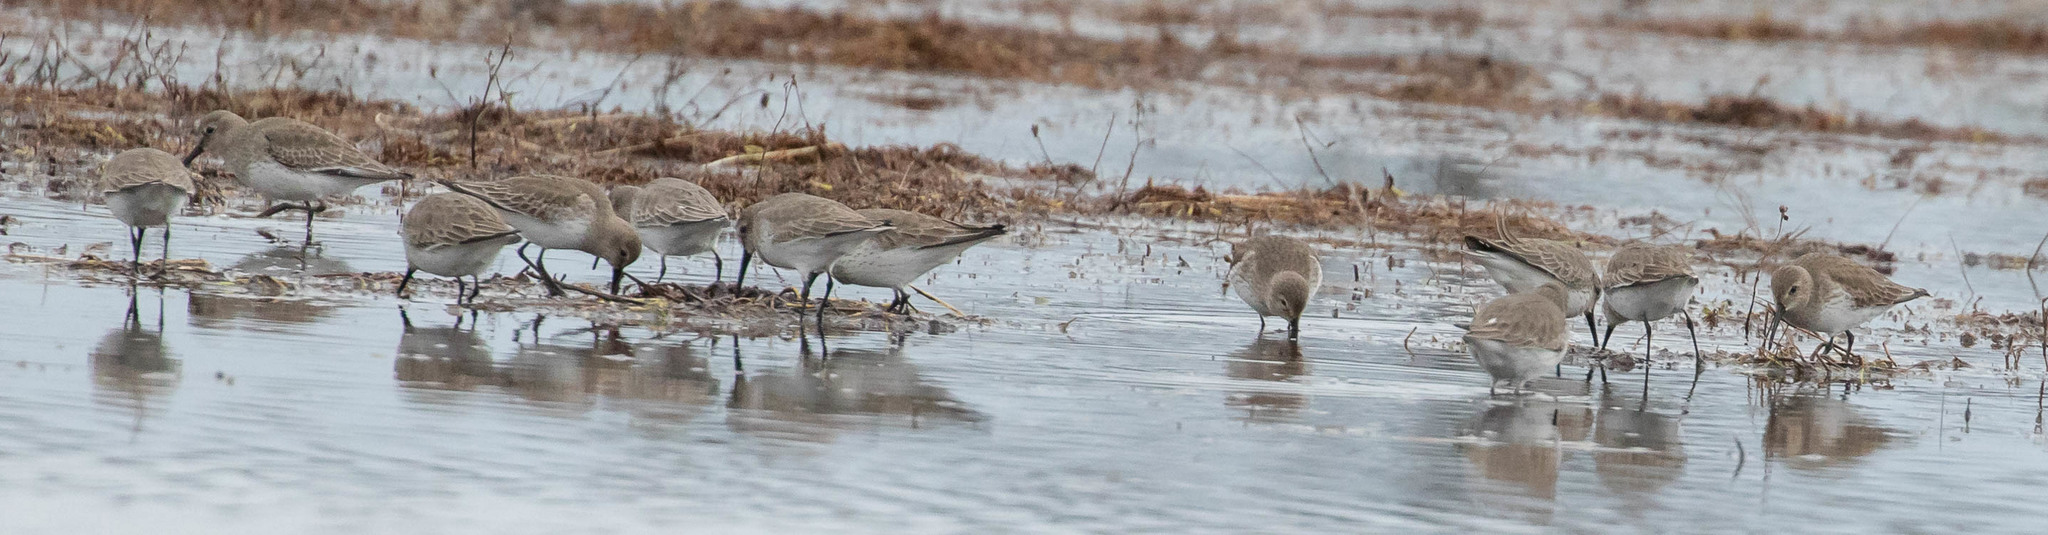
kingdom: Animalia
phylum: Chordata
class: Aves
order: Charadriiformes
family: Scolopacidae
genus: Calidris
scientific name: Calidris alpina
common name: Dunlin
